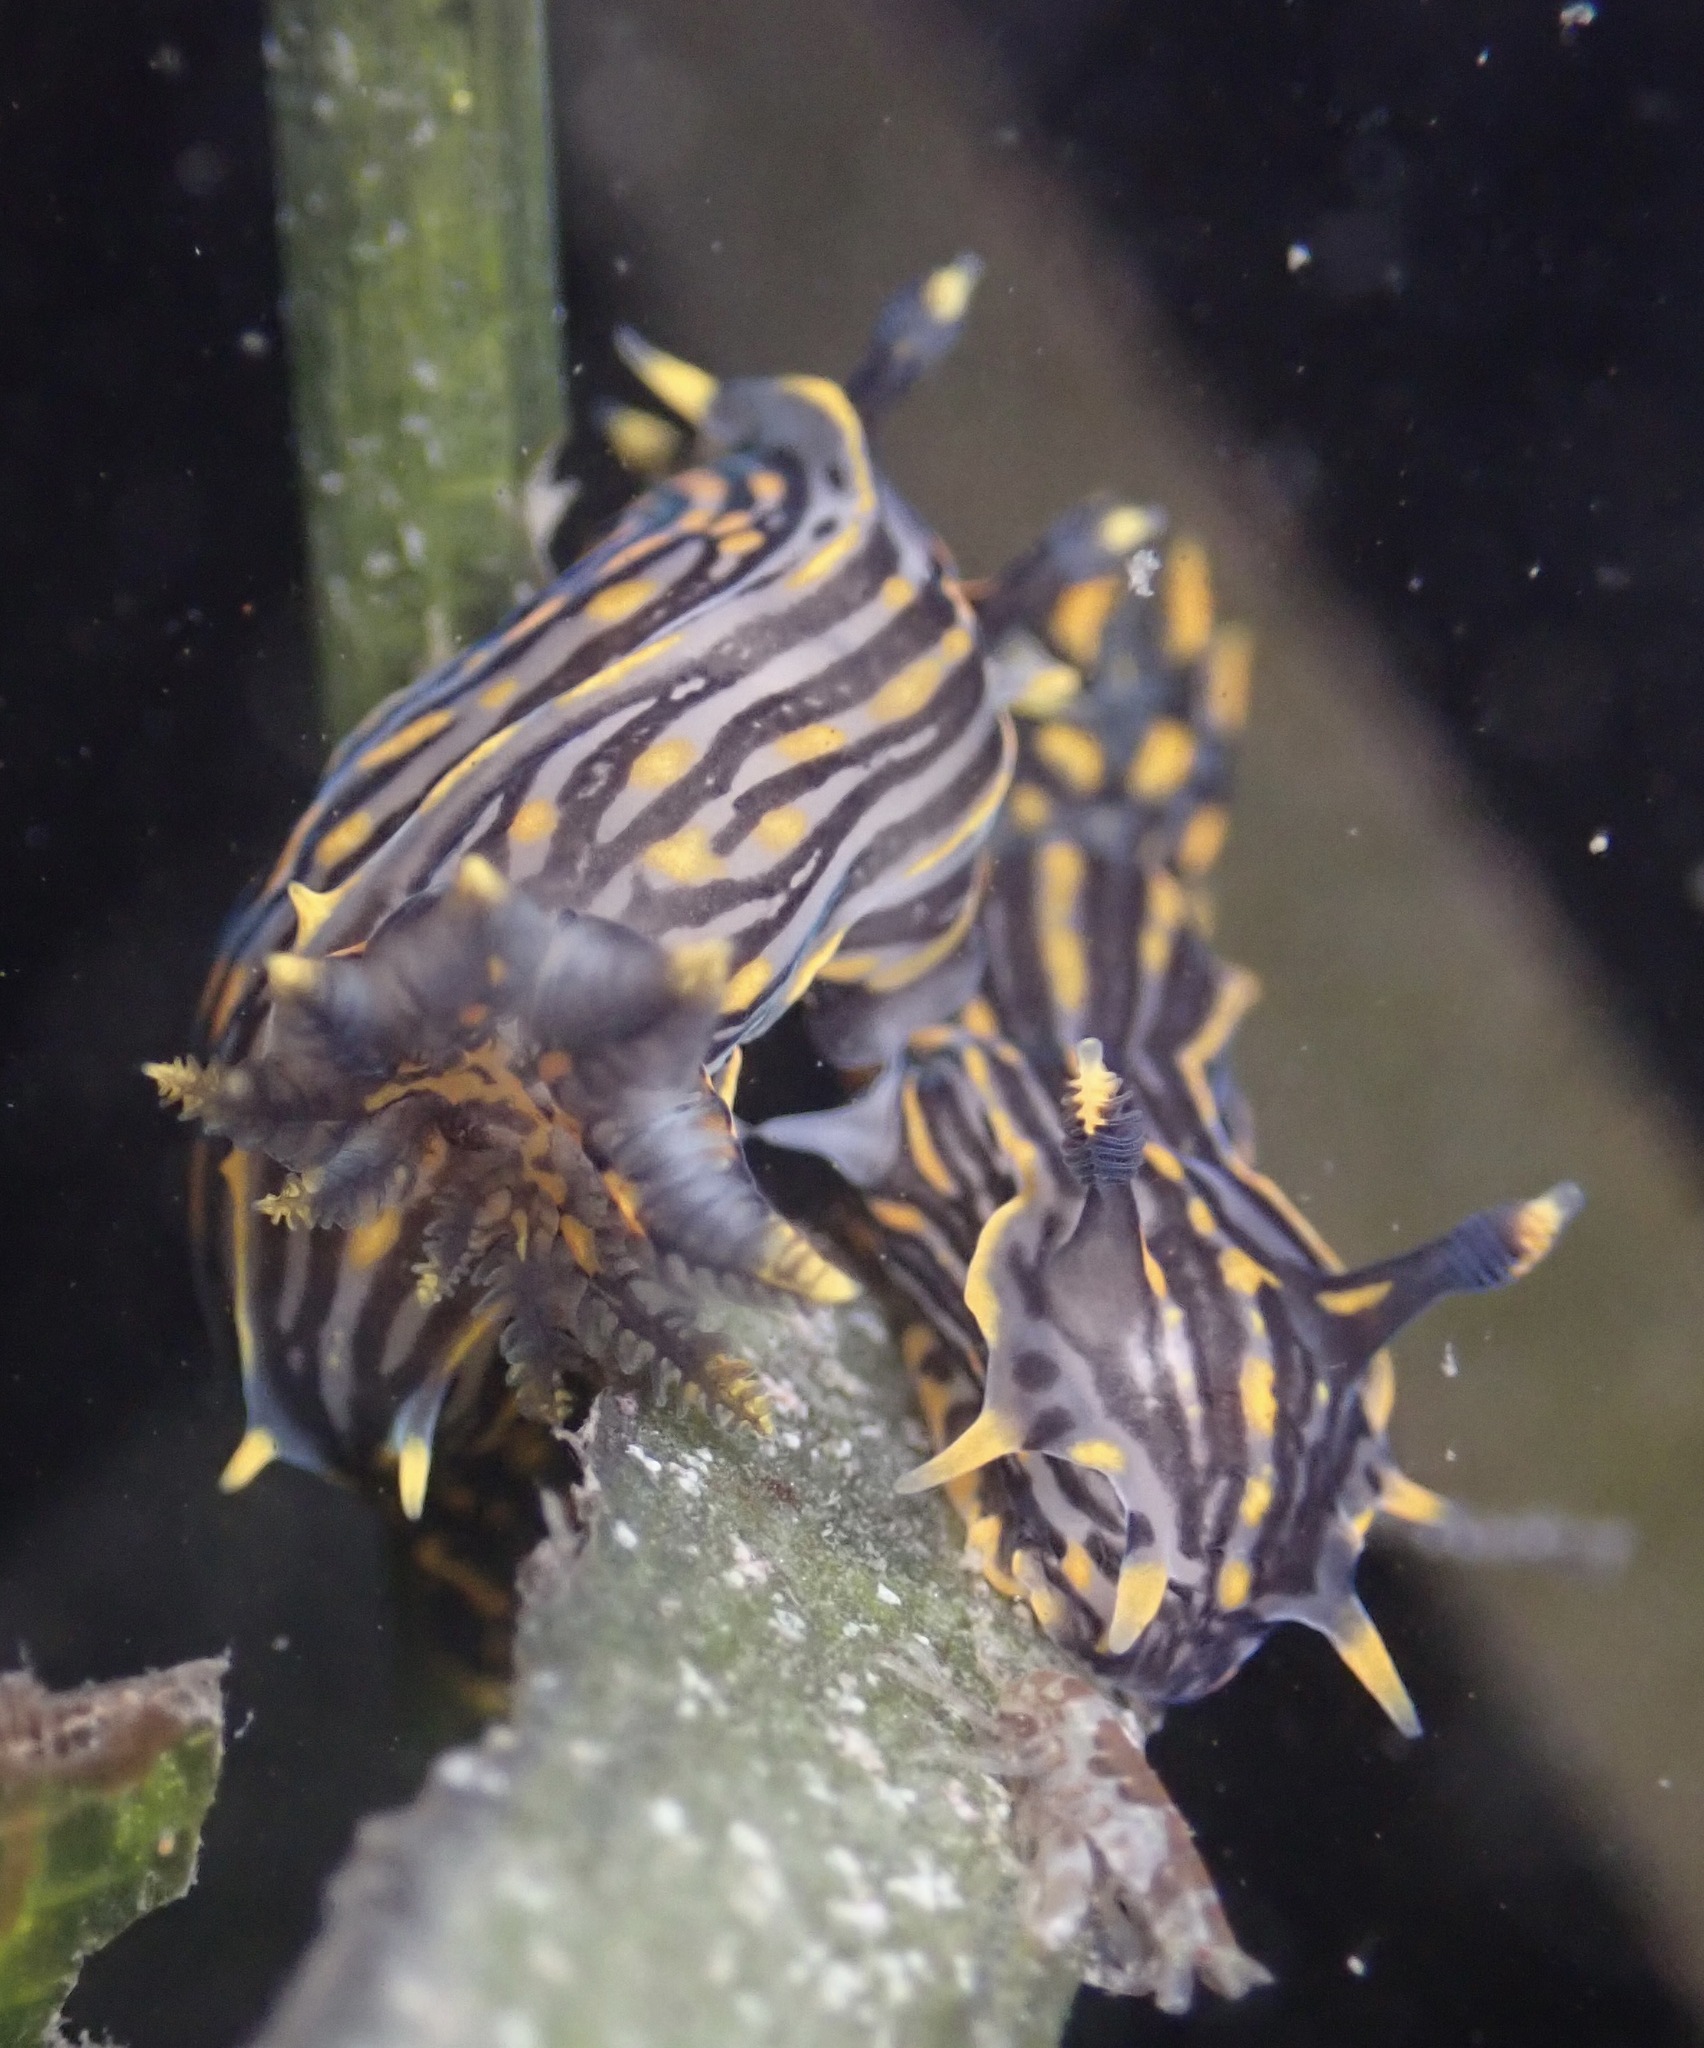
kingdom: Animalia
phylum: Mollusca
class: Gastropoda
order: Nudibranchia
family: Polyceridae
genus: Polycera
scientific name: Polycera atra
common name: Orange-spike polycera
